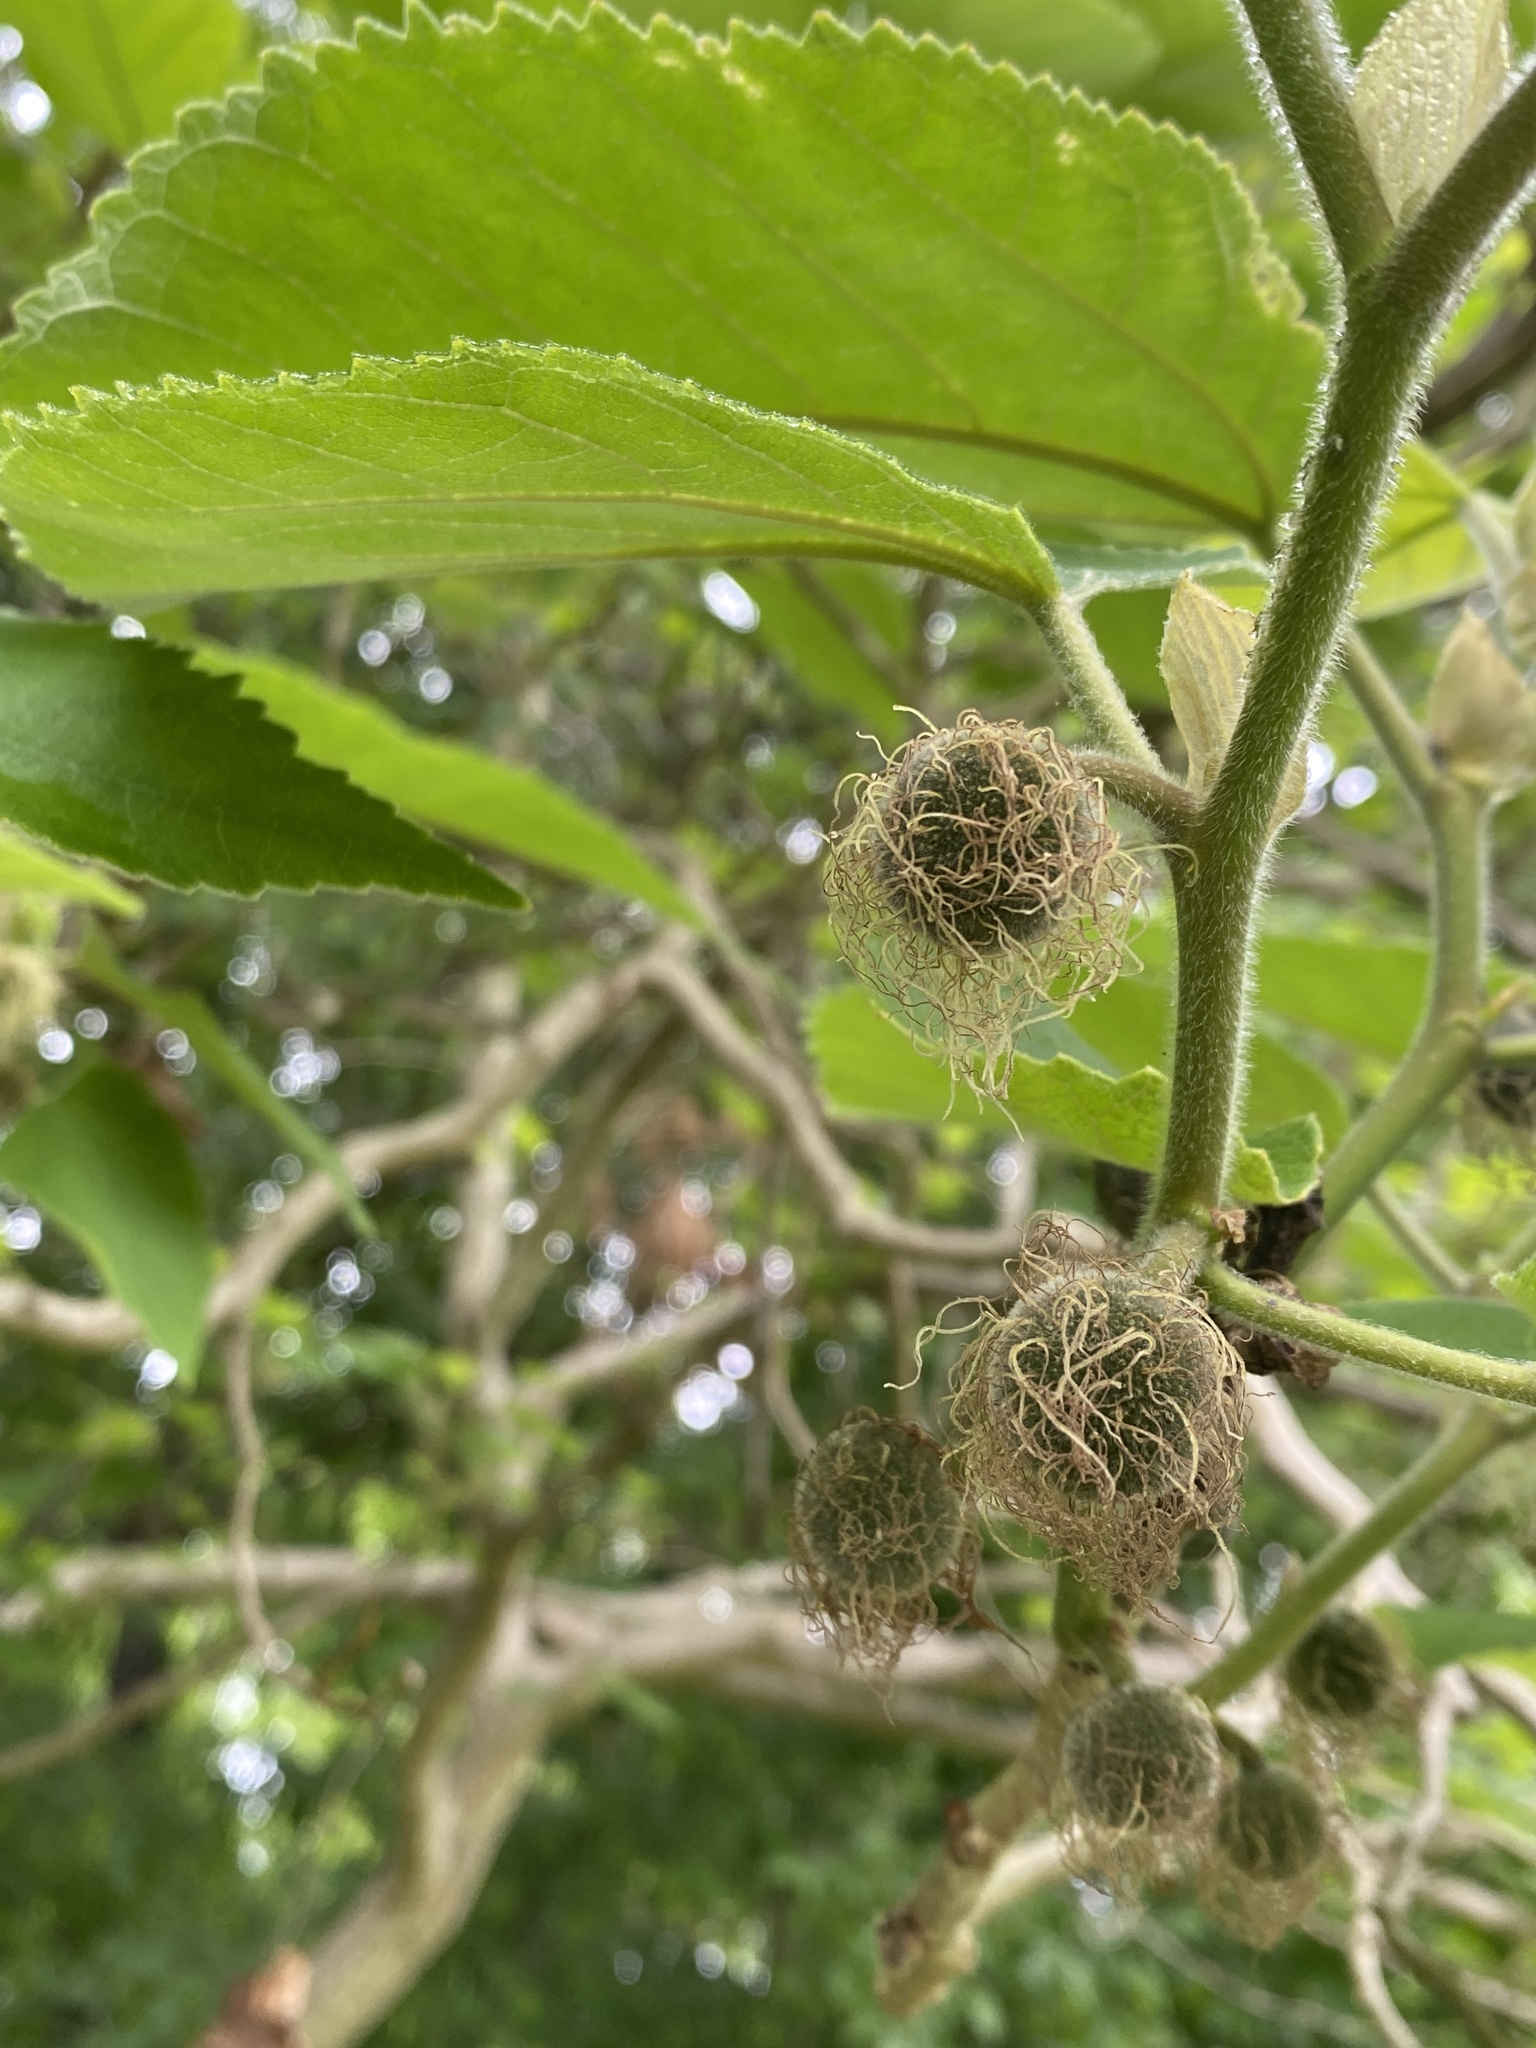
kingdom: Plantae
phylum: Tracheophyta
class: Magnoliopsida
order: Rosales
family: Moraceae
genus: Broussonetia
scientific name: Broussonetia papyrifera
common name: Paper mulberry
